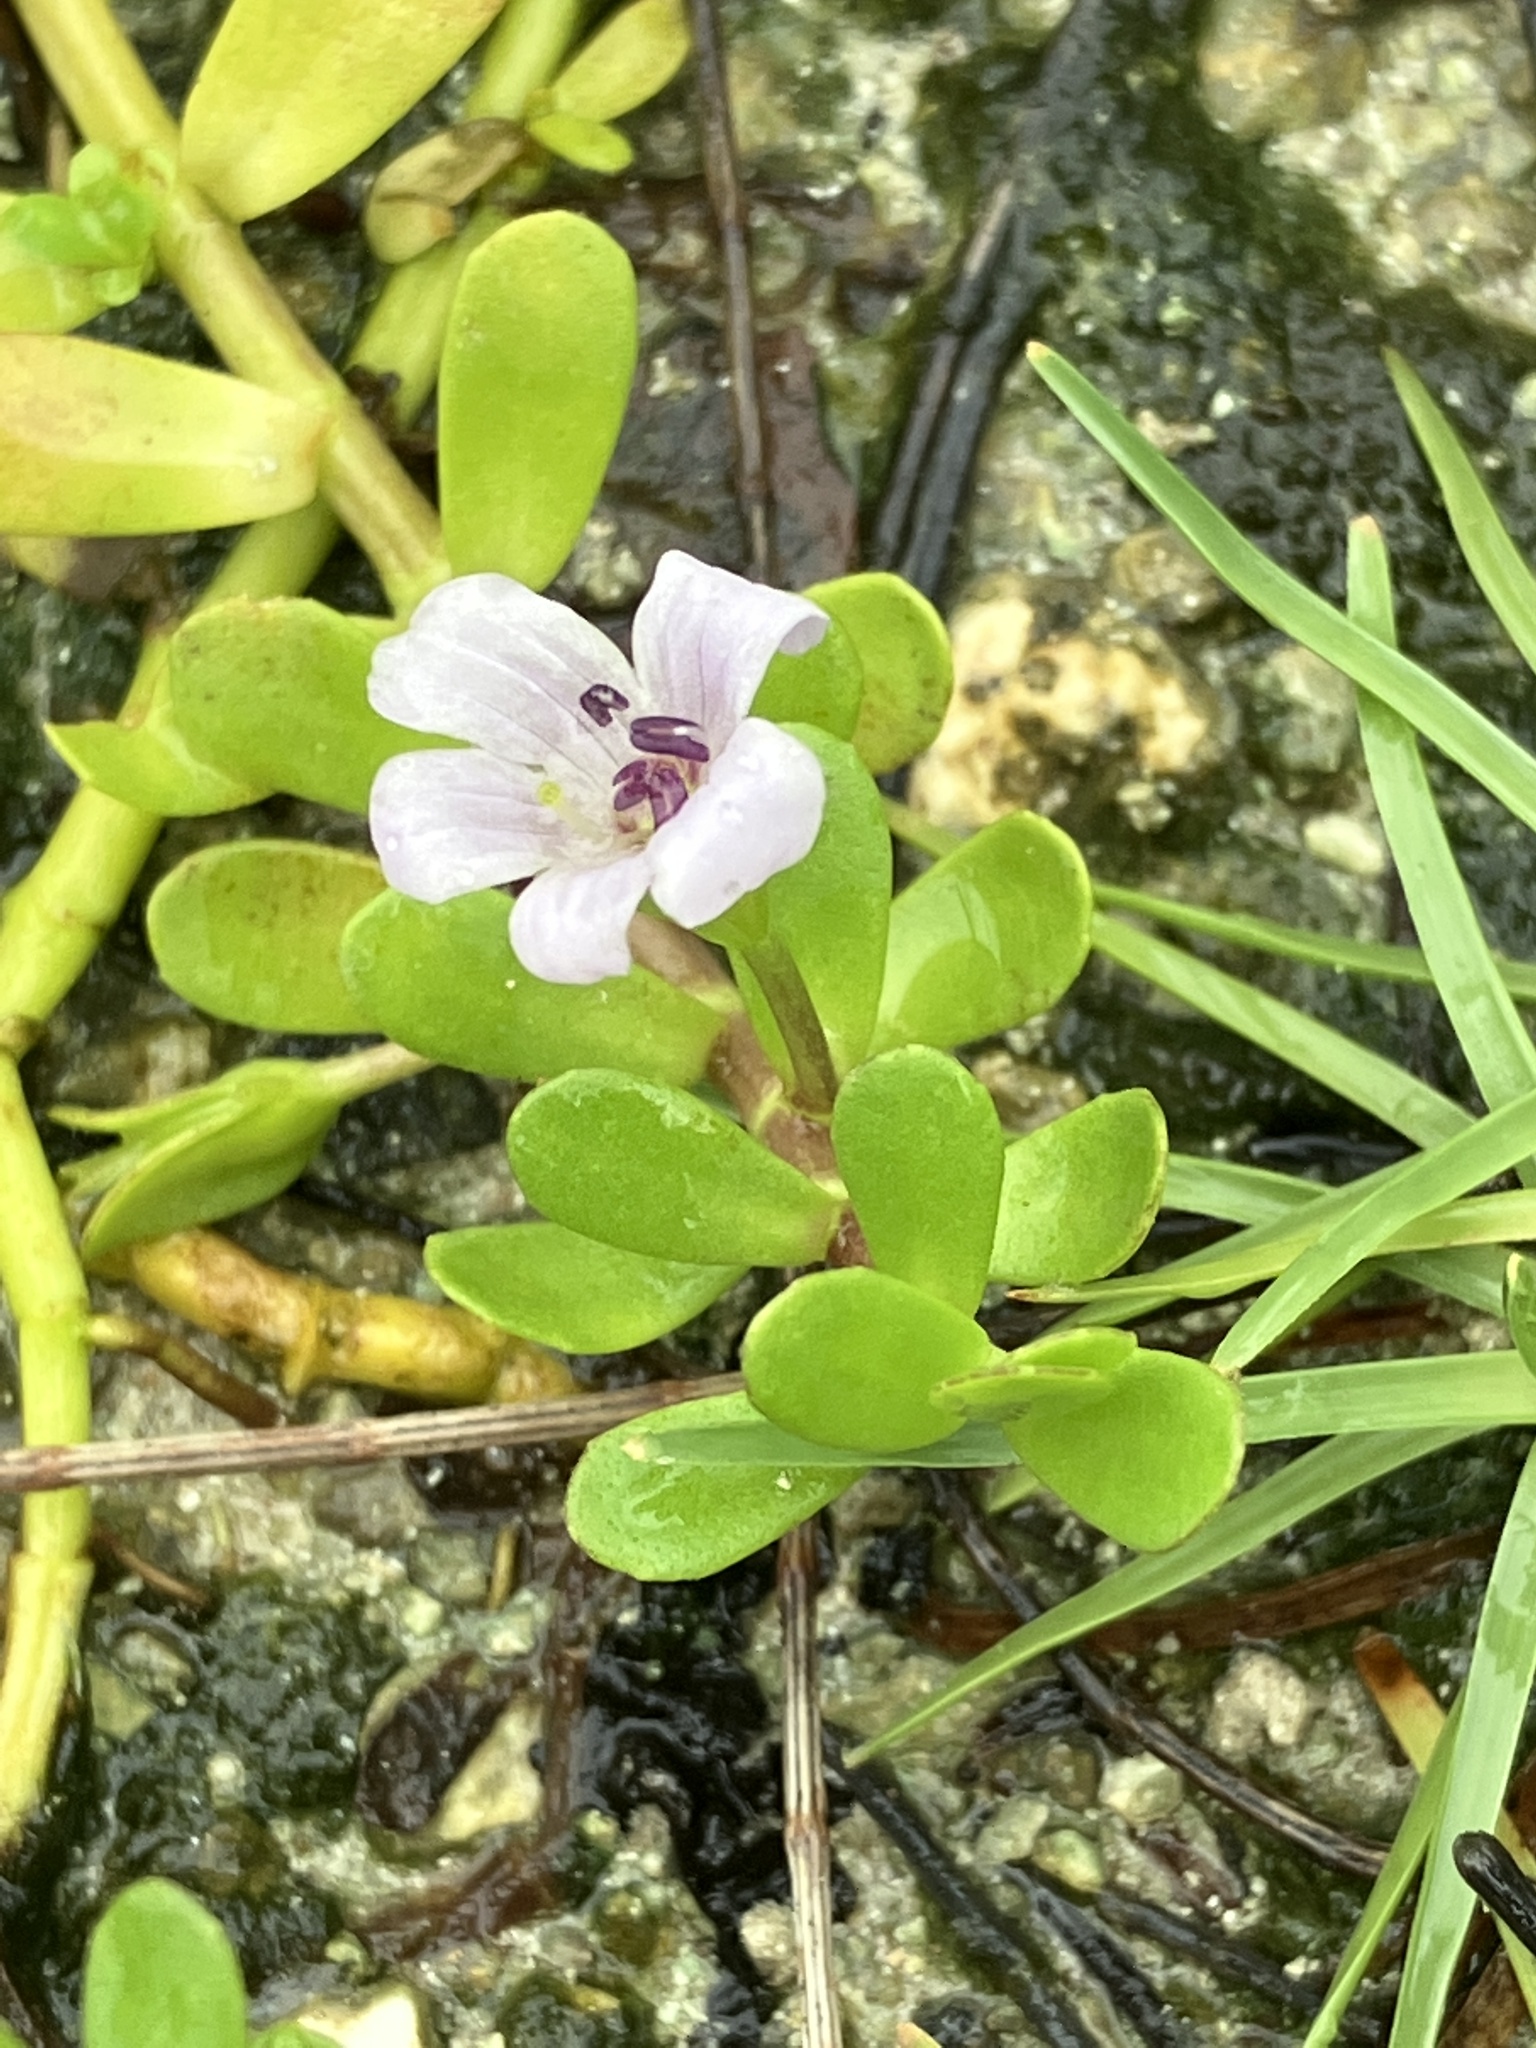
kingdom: Plantae
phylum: Tracheophyta
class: Magnoliopsida
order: Lamiales
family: Plantaginaceae
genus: Bacopa
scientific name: Bacopa monnieri
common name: Indian-pennywort
